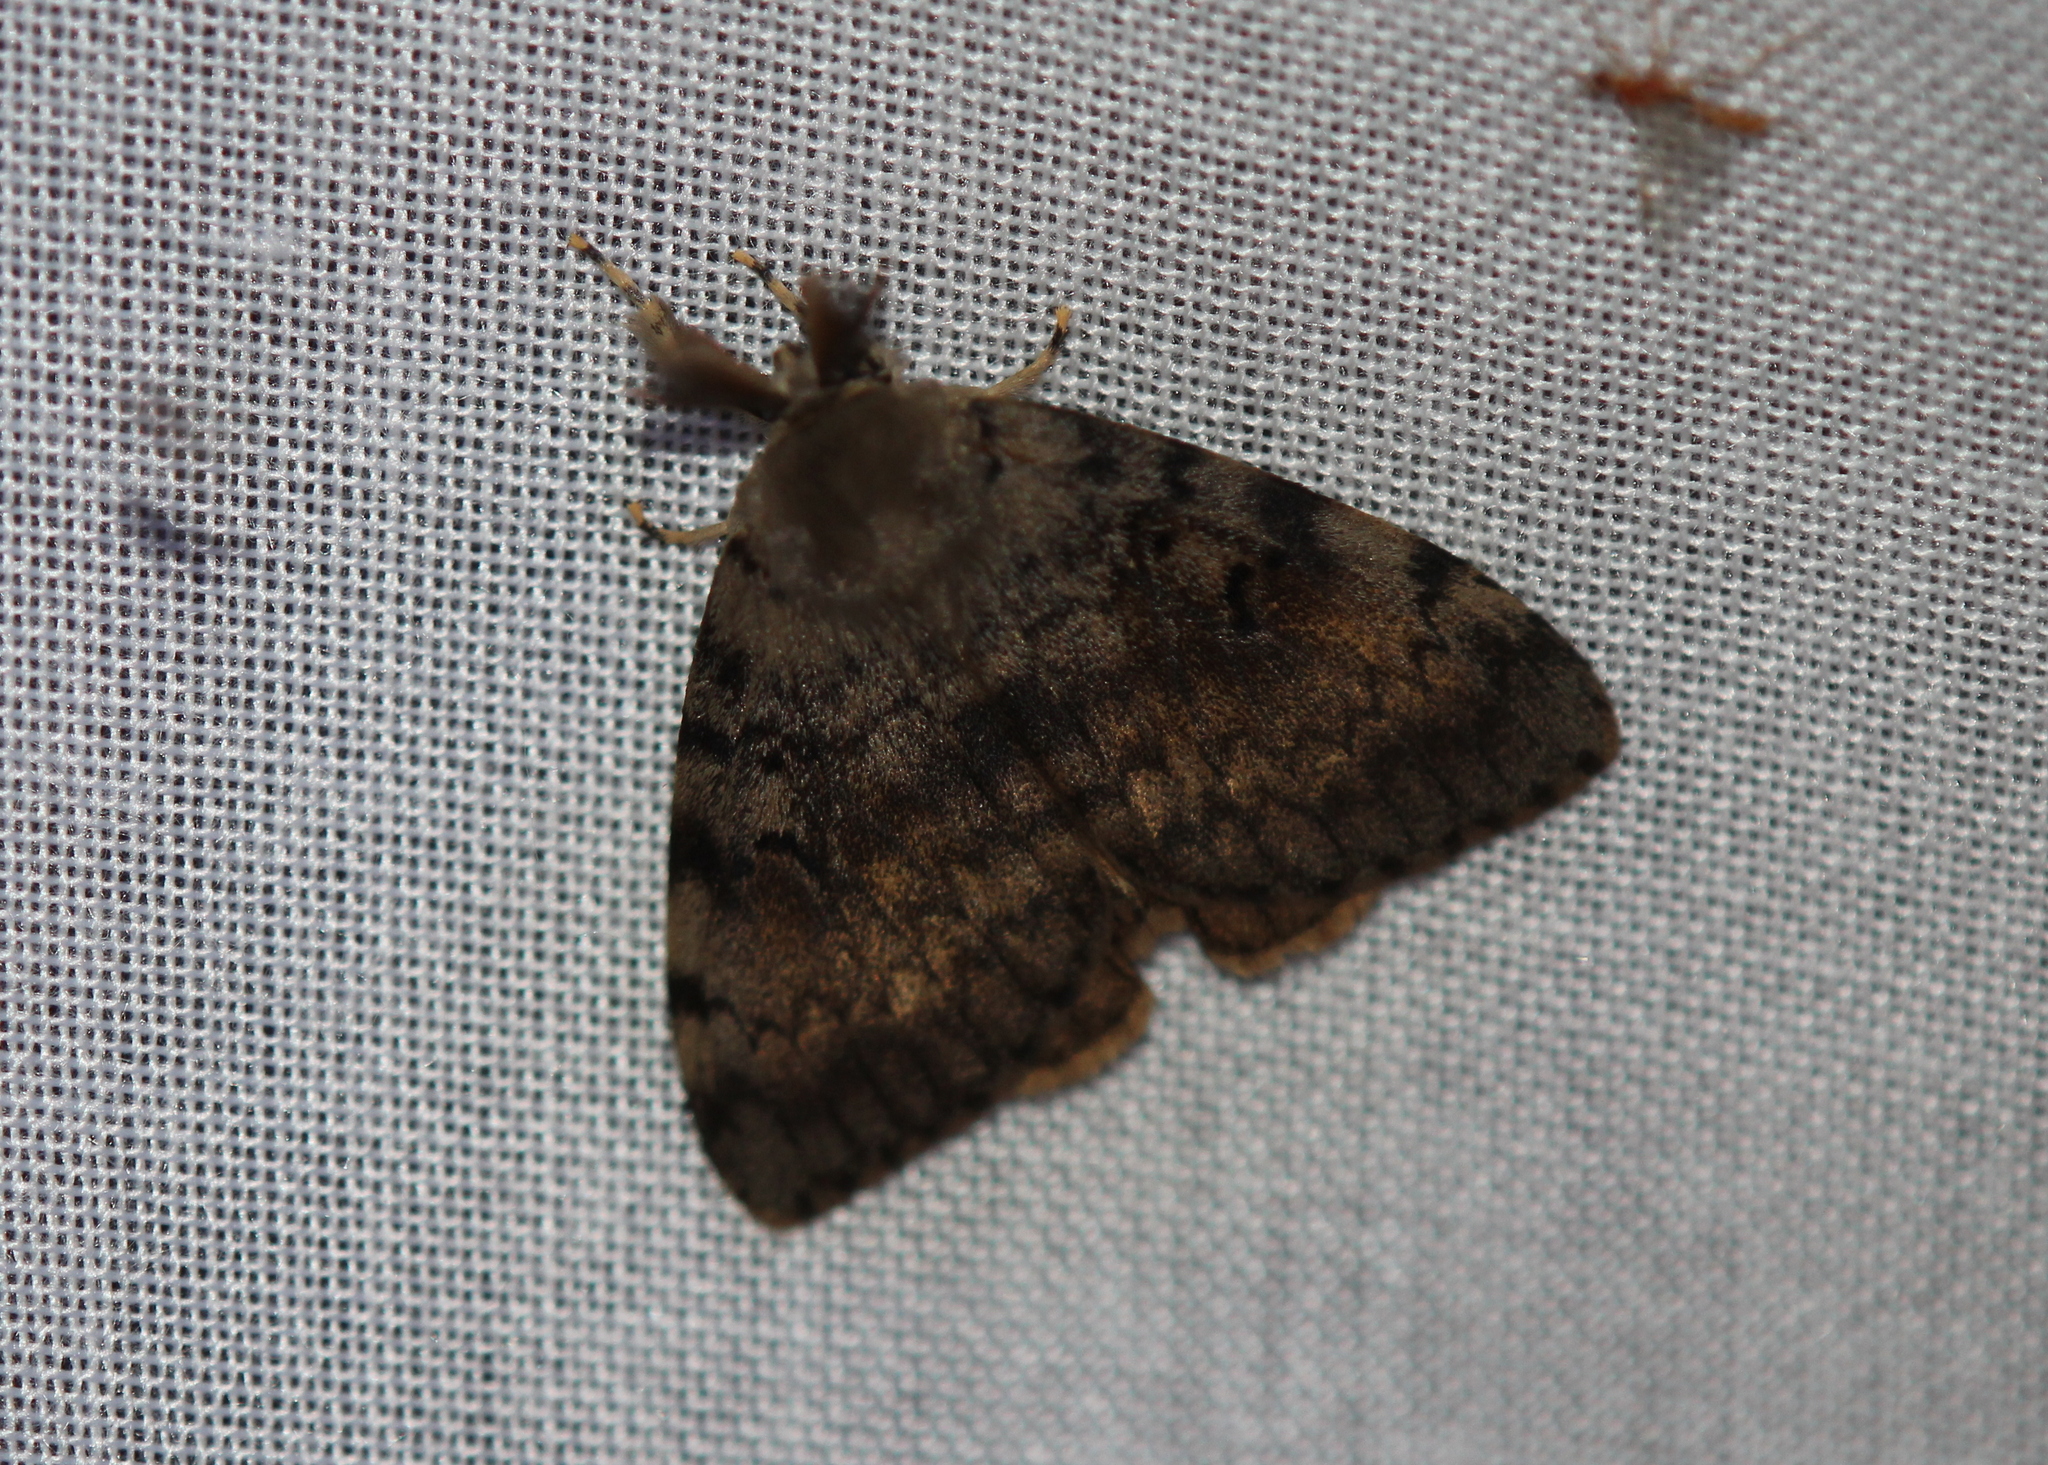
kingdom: Animalia
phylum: Arthropoda
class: Insecta
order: Lepidoptera
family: Erebidae
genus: Lymantria
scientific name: Lymantria dispar
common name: Gypsy moth
